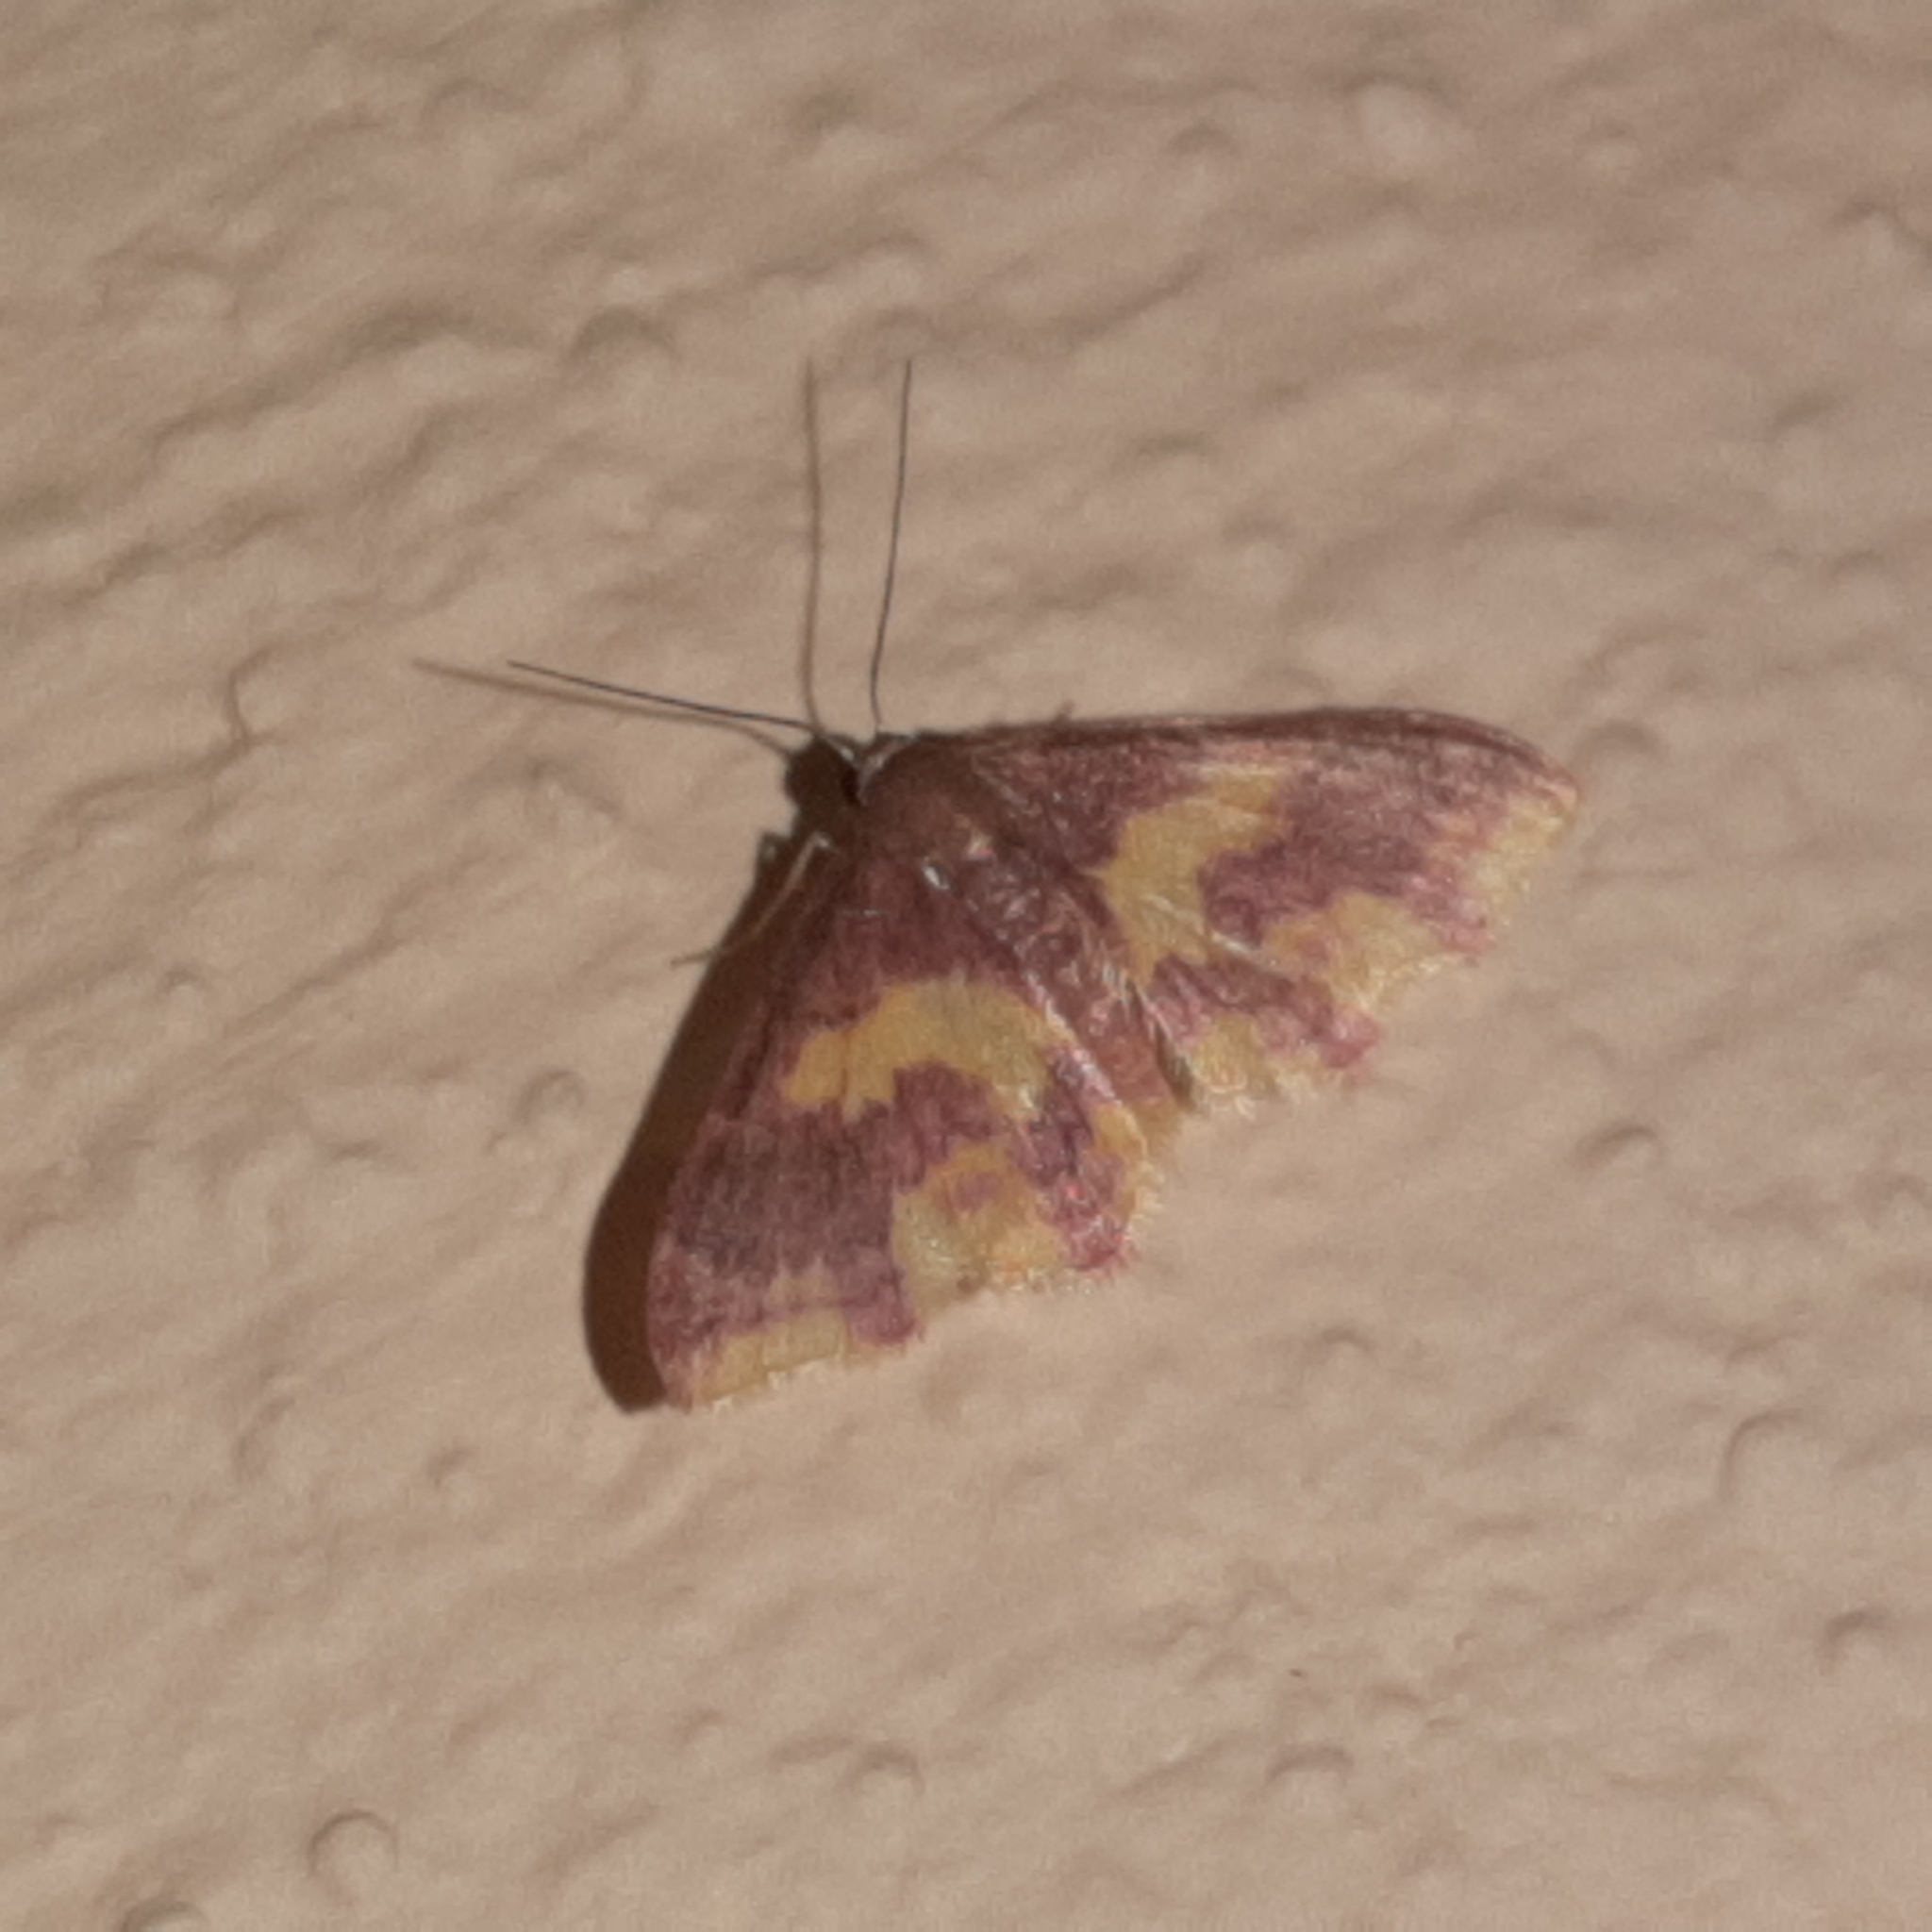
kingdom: Animalia
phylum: Arthropoda
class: Insecta
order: Lepidoptera
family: Geometridae
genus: Tricentrogyna
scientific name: Tricentrogyna violescens
